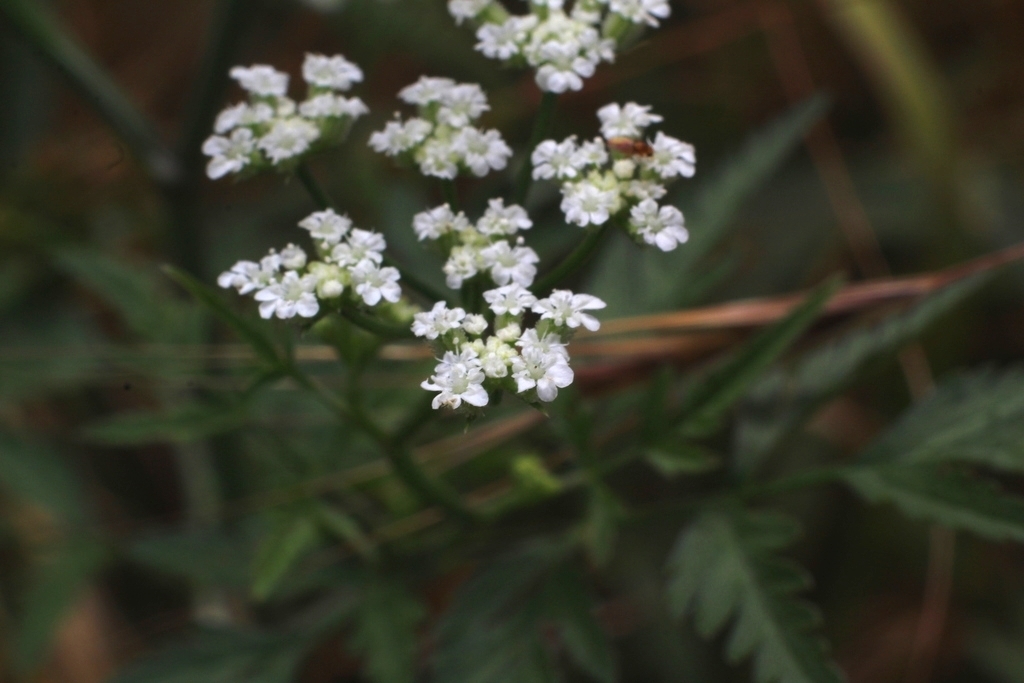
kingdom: Plantae
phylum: Tracheophyta
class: Magnoliopsida
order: Apiales
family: Apiaceae
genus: Torilis
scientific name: Torilis arvensis
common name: Spreading hedge-parsley
